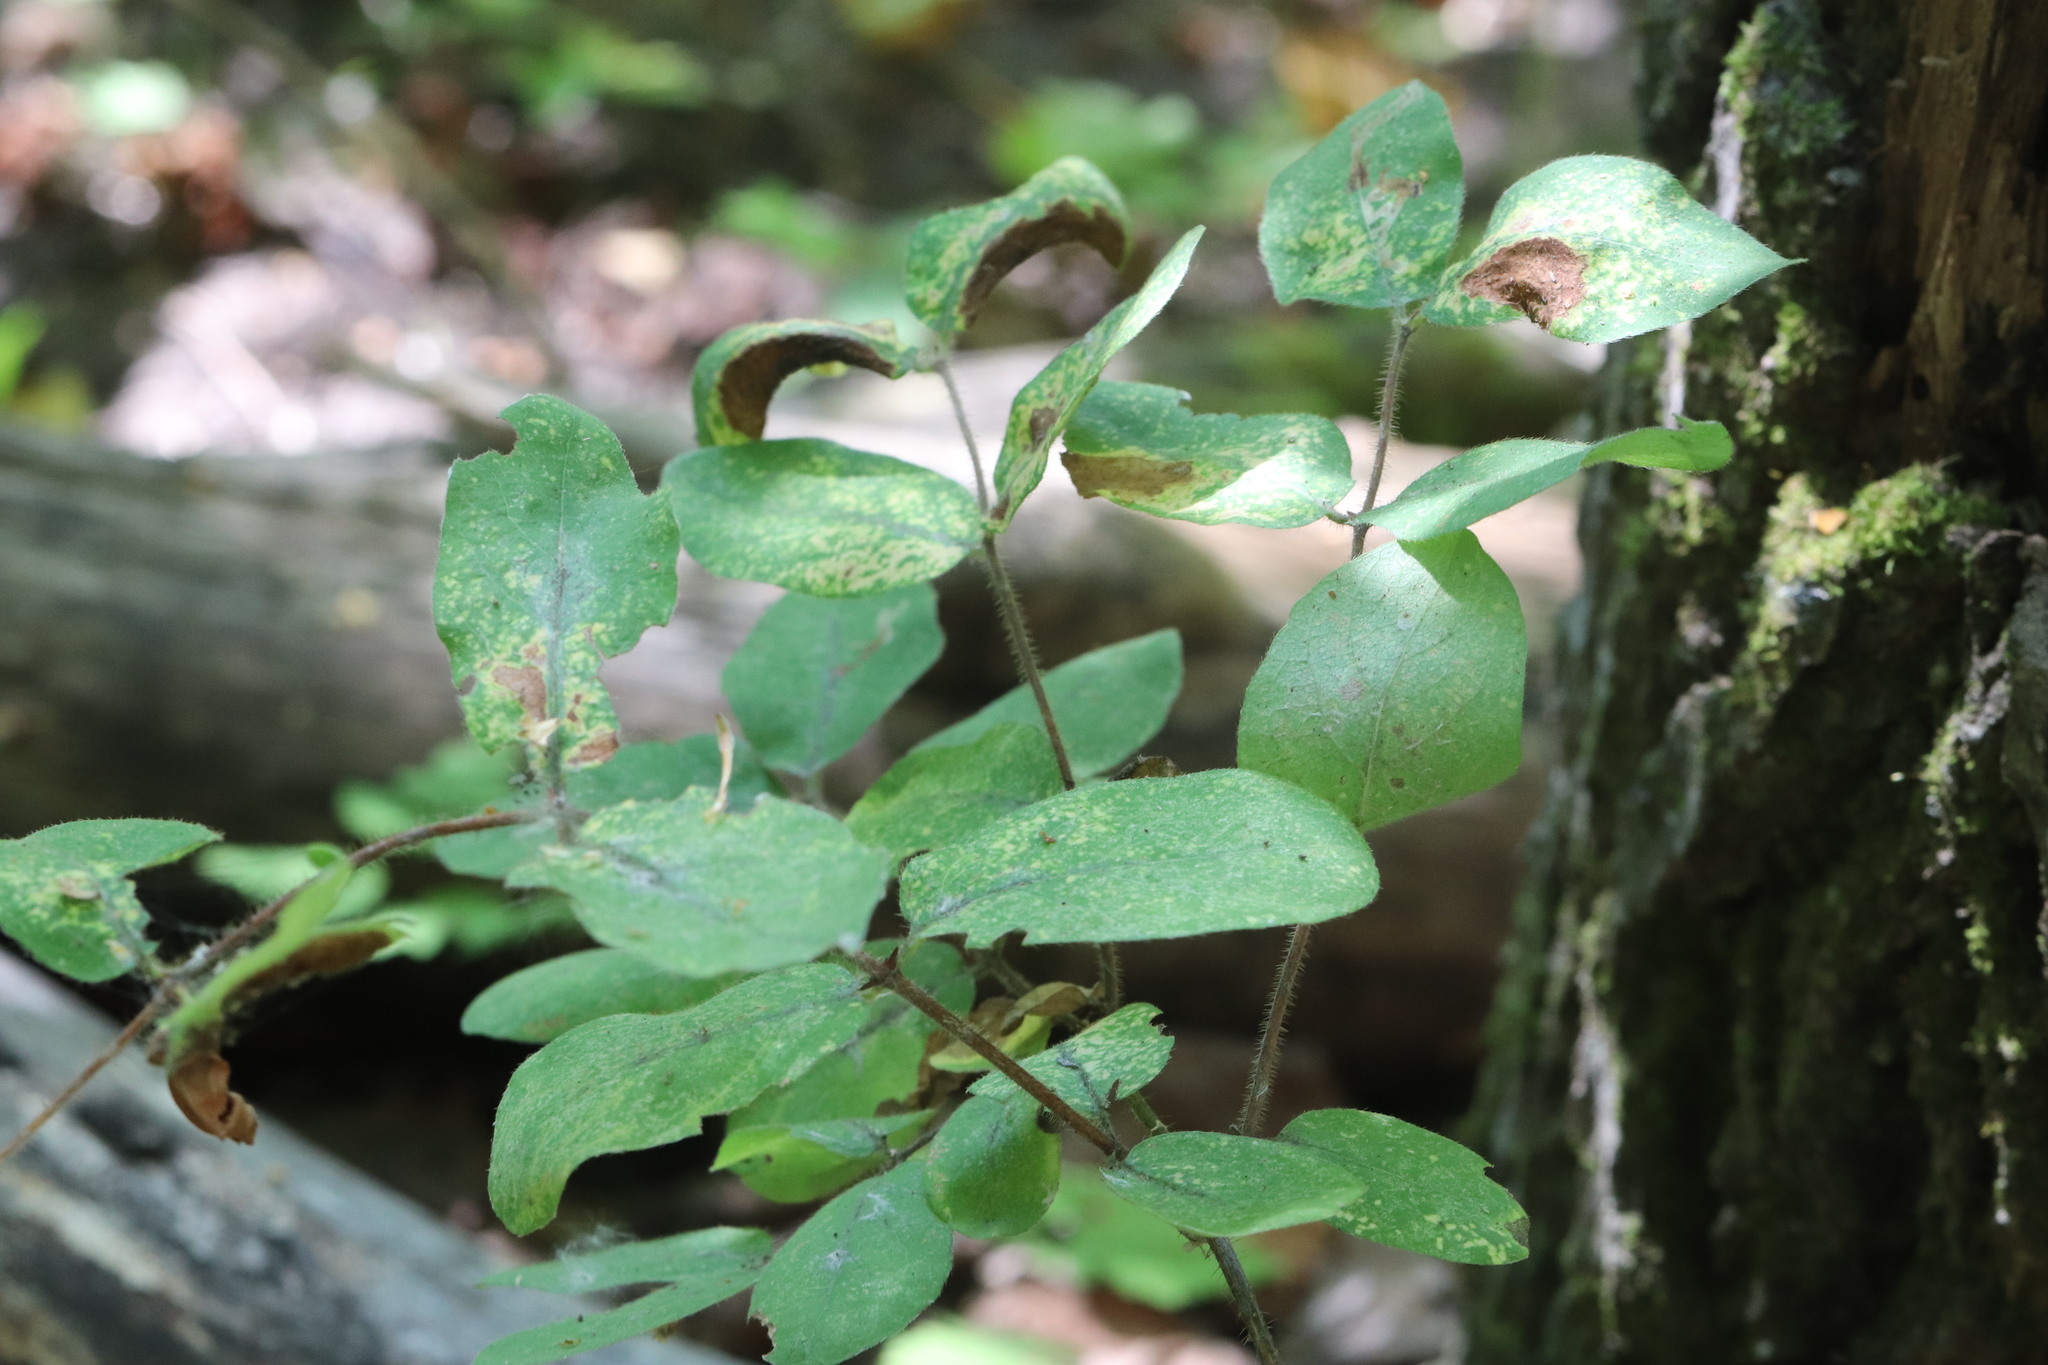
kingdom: Plantae
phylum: Tracheophyta
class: Magnoliopsida
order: Dipsacales
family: Caprifoliaceae
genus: Lonicera
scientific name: Lonicera caerulea
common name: Blue honeysuckle
